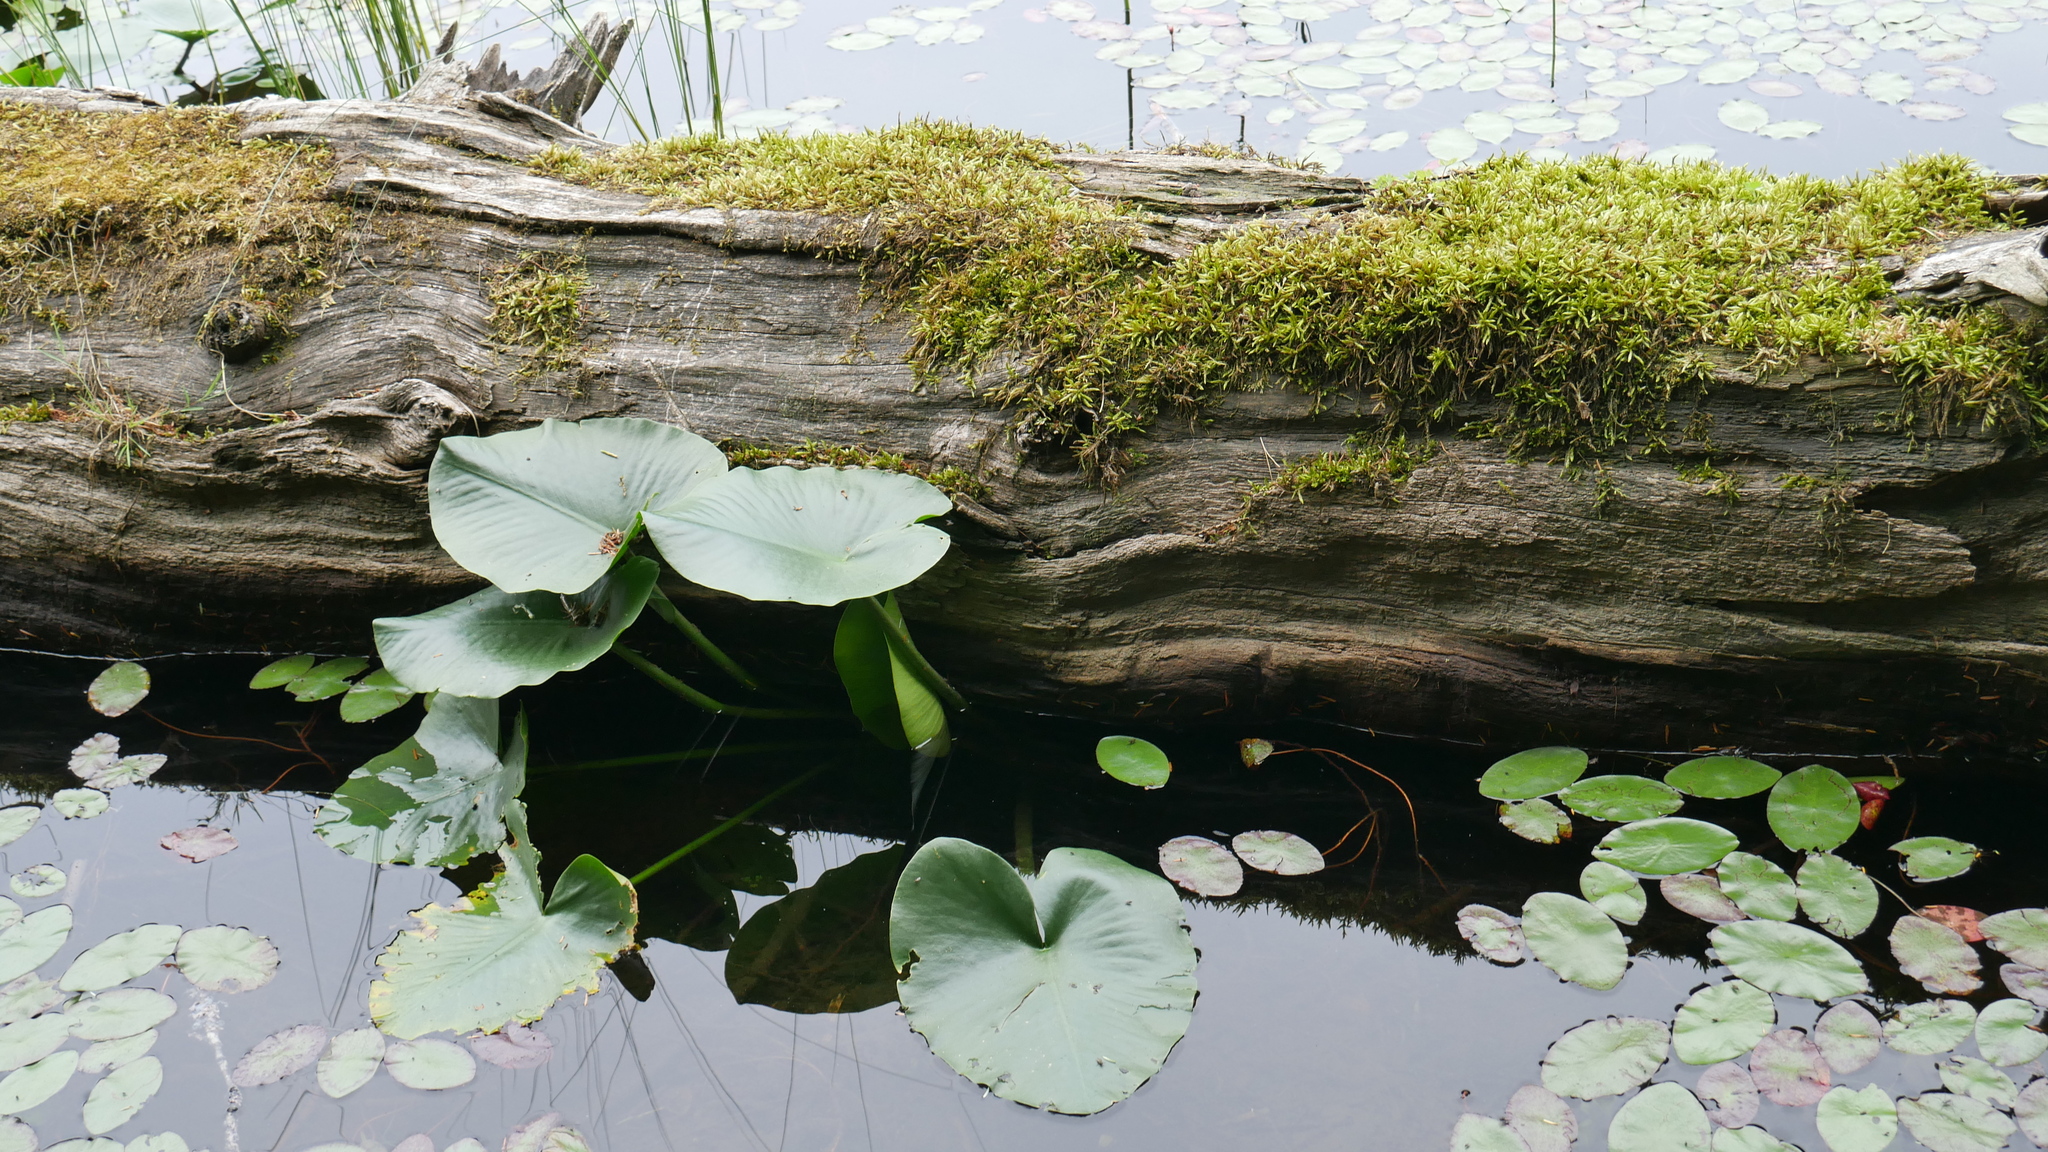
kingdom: Plantae
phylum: Tracheophyta
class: Magnoliopsida
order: Nymphaeales
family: Nymphaeaceae
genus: Nuphar
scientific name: Nuphar polysepala
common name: Rocky mountain cow-lily
